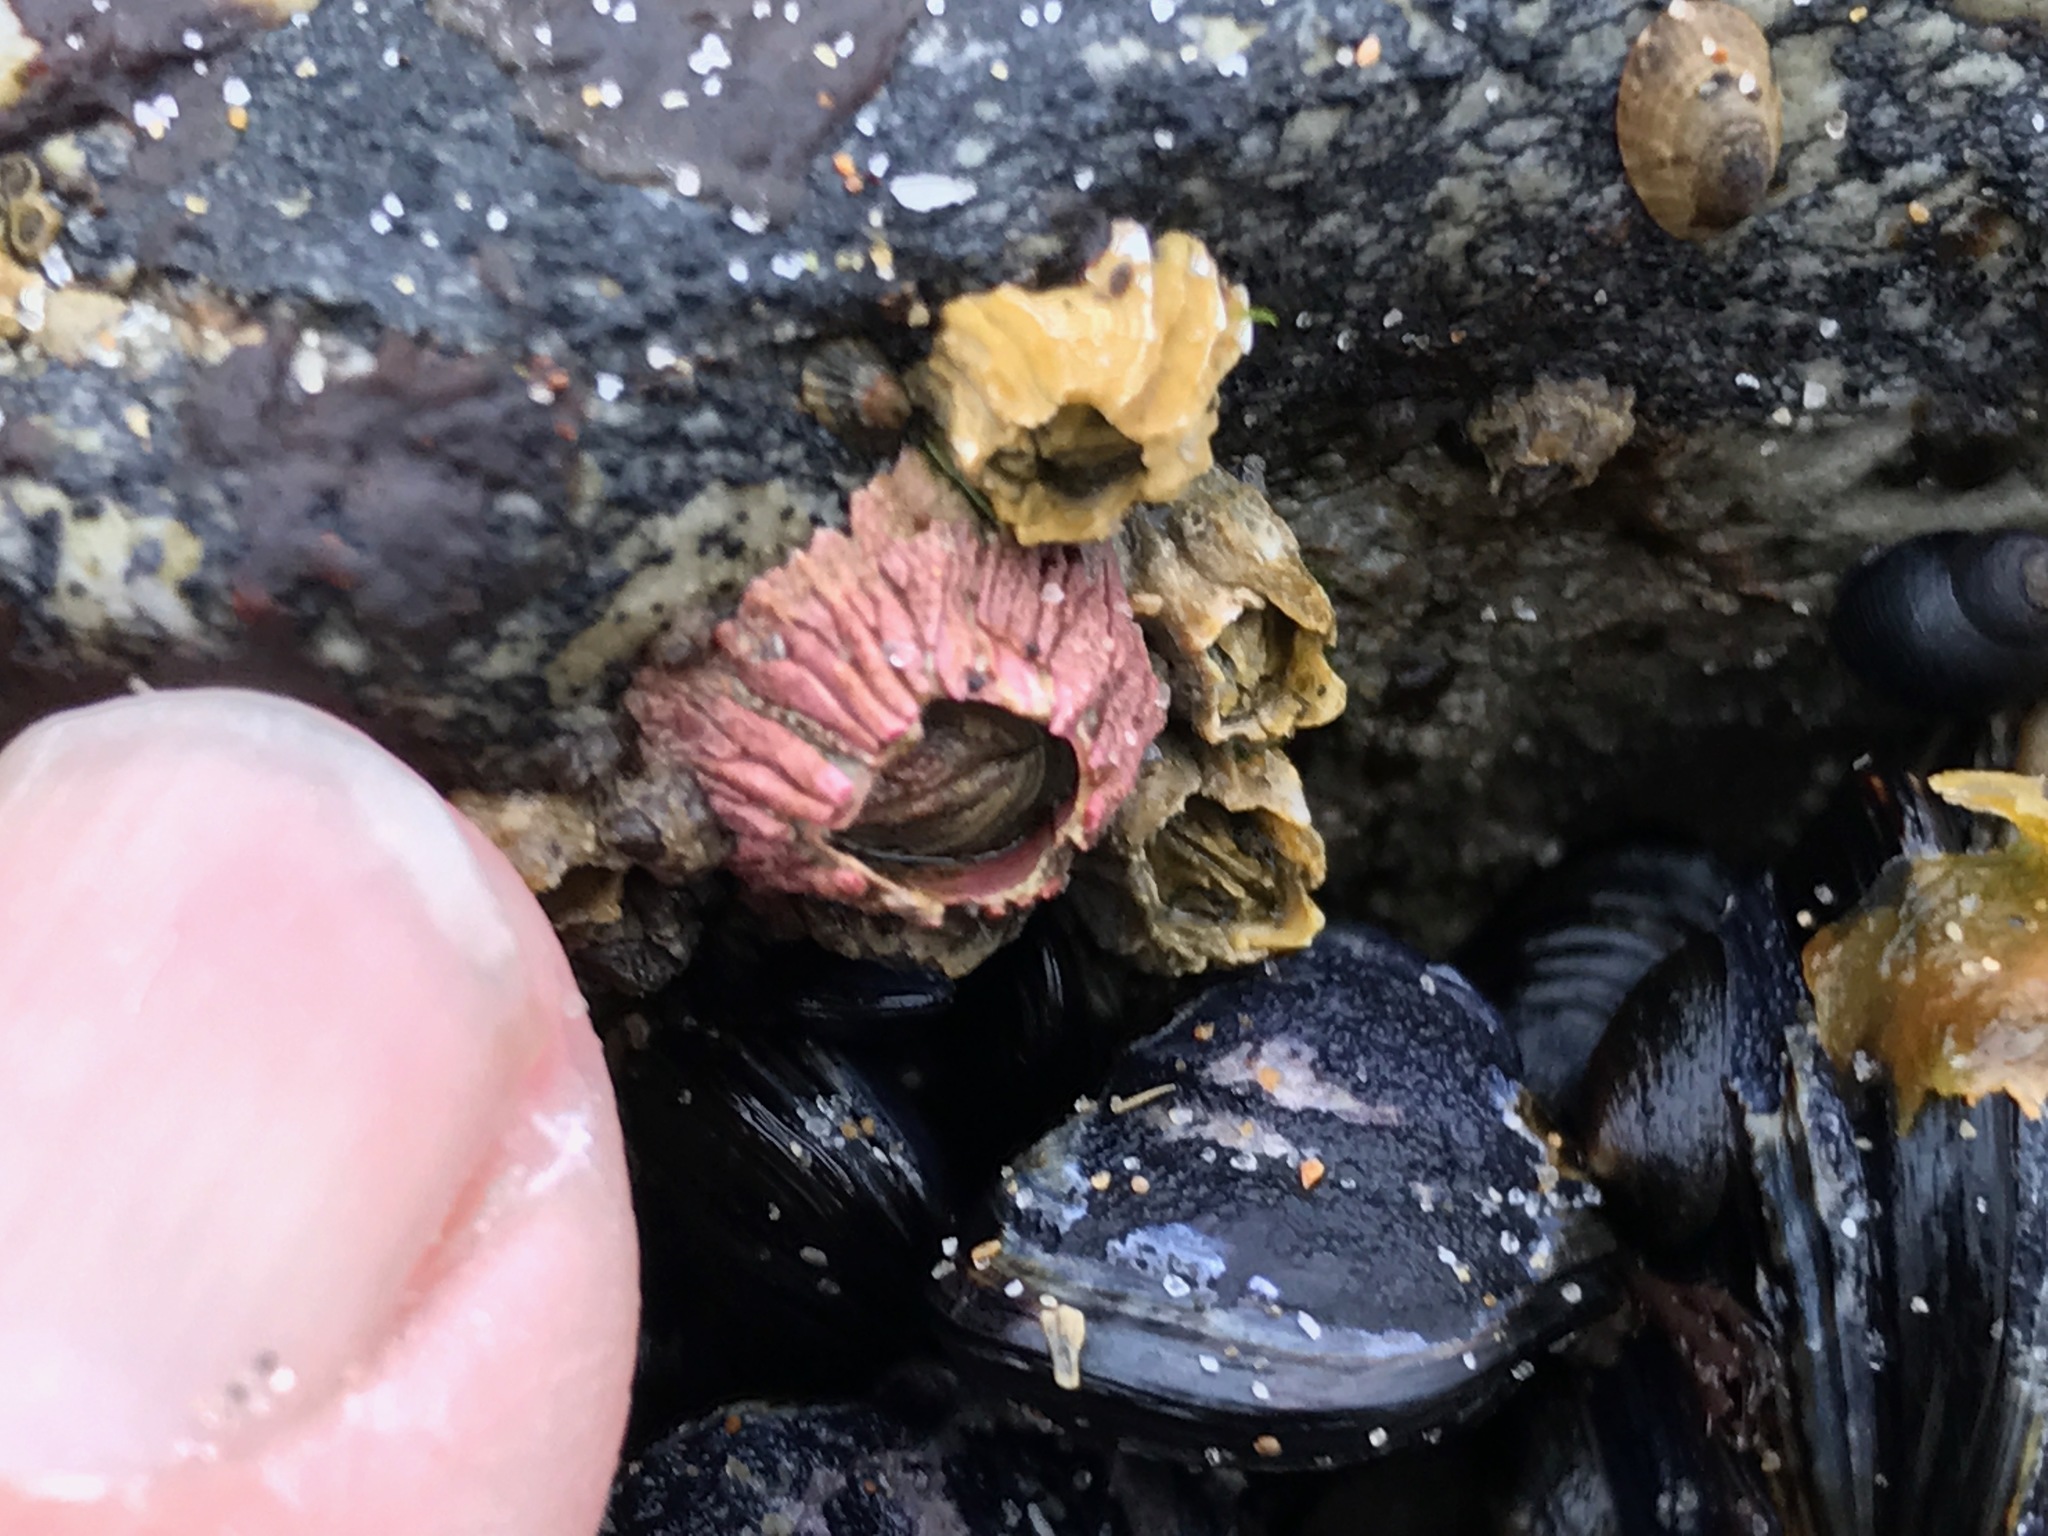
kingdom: Animalia
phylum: Arthropoda
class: Maxillopoda
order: Sessilia
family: Tetraclitidae
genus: Tetraclita
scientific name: Tetraclita rubescens
